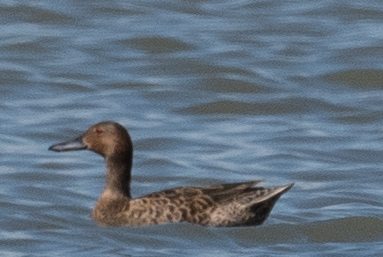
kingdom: Animalia
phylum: Chordata
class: Aves
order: Anseriformes
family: Anatidae
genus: Spatula
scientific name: Spatula cyanoptera
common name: Cinnamon teal
